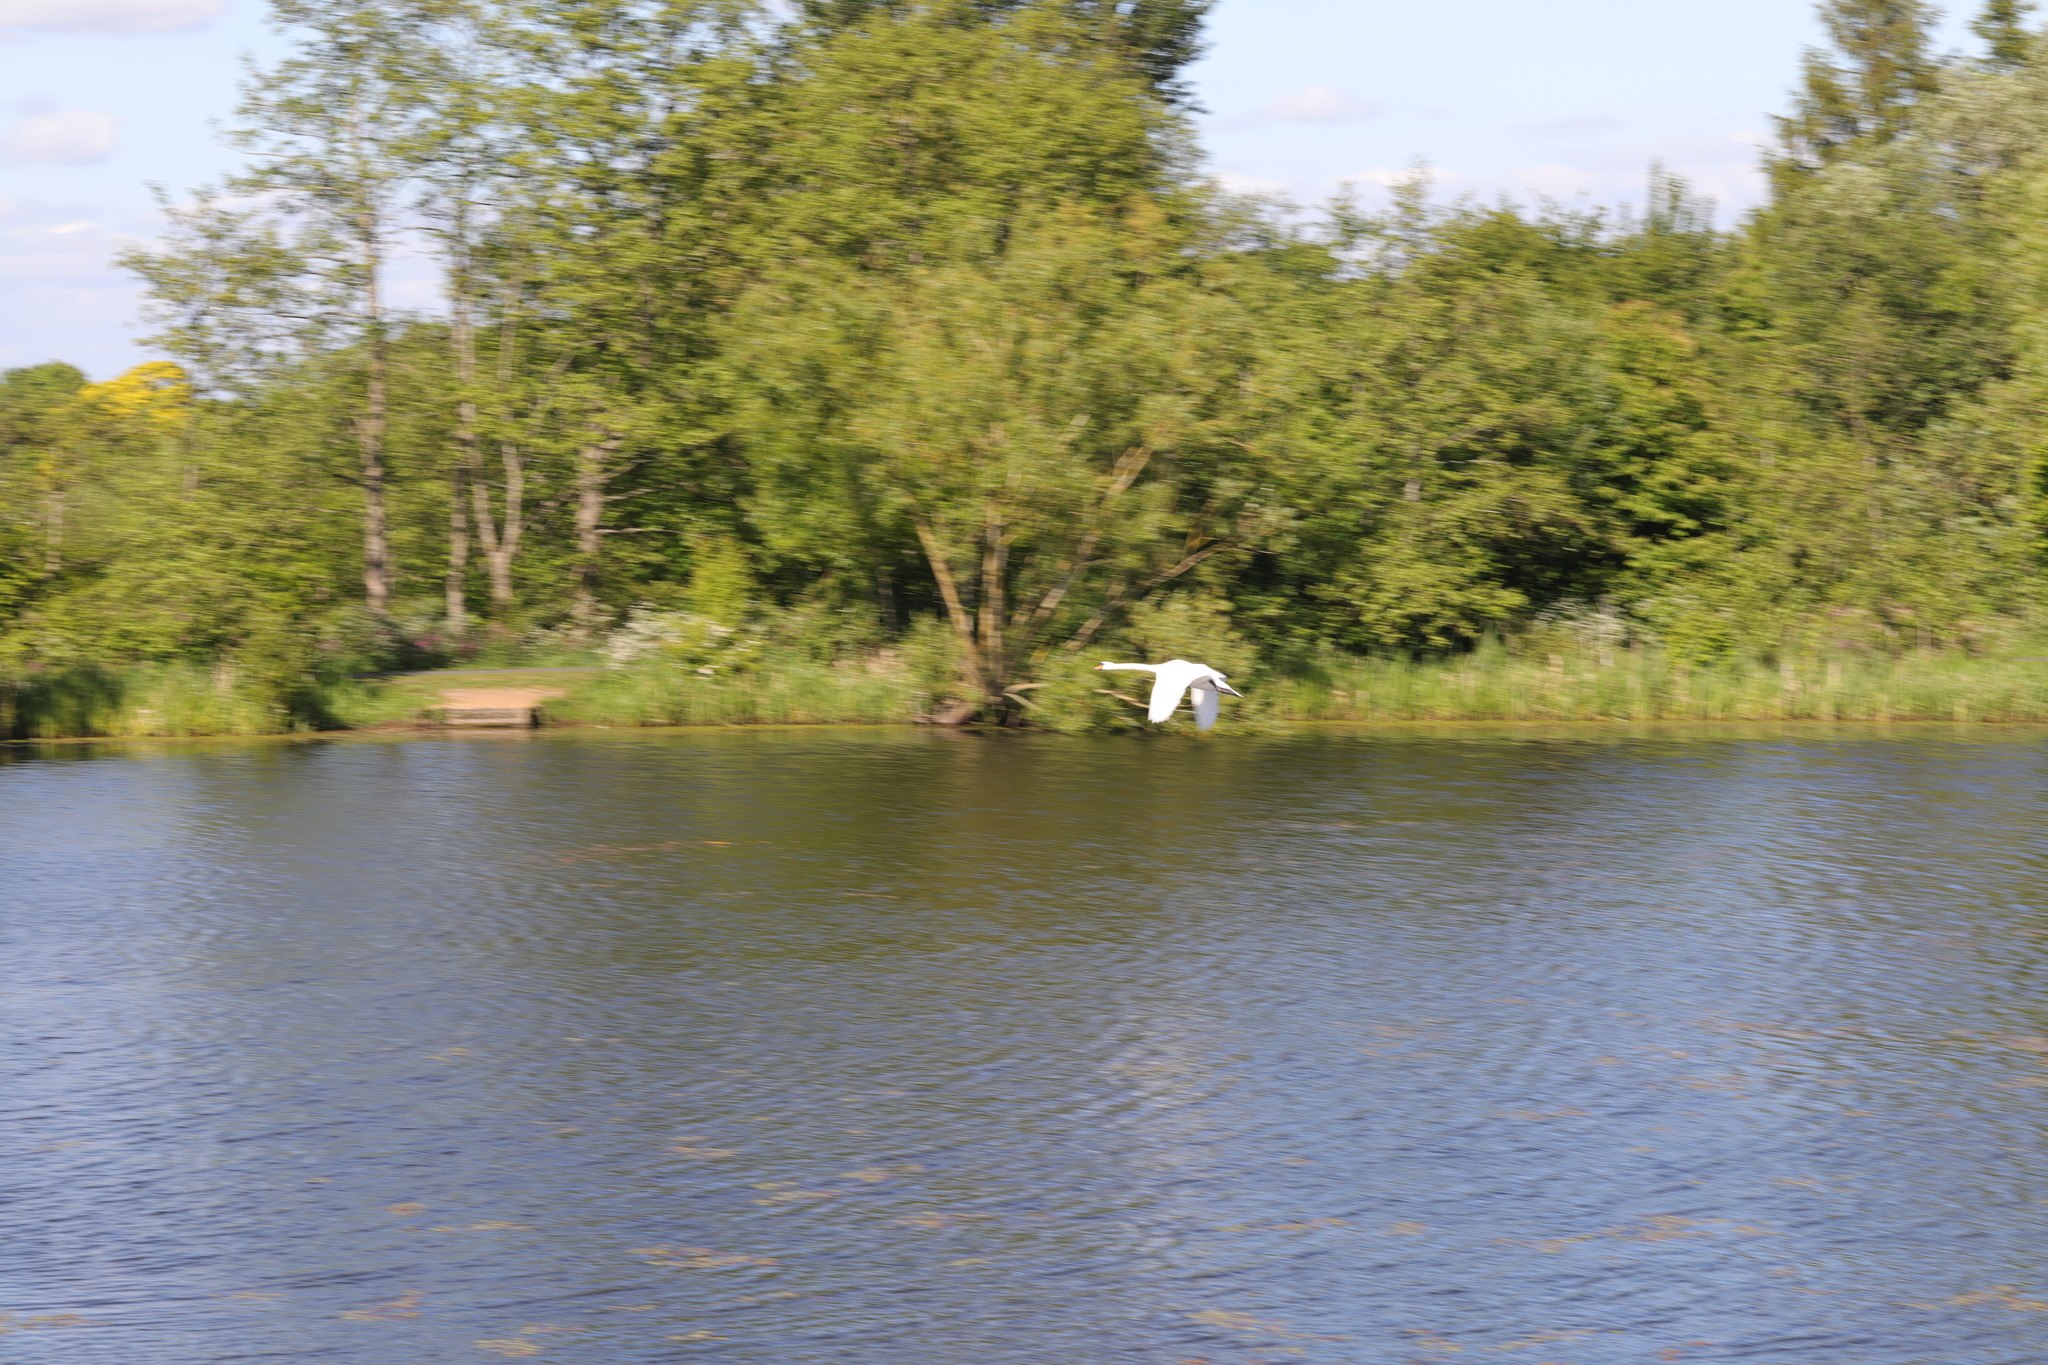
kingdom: Animalia
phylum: Chordata
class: Aves
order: Anseriformes
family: Anatidae
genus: Cygnus
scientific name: Cygnus olor
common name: Mute swan
